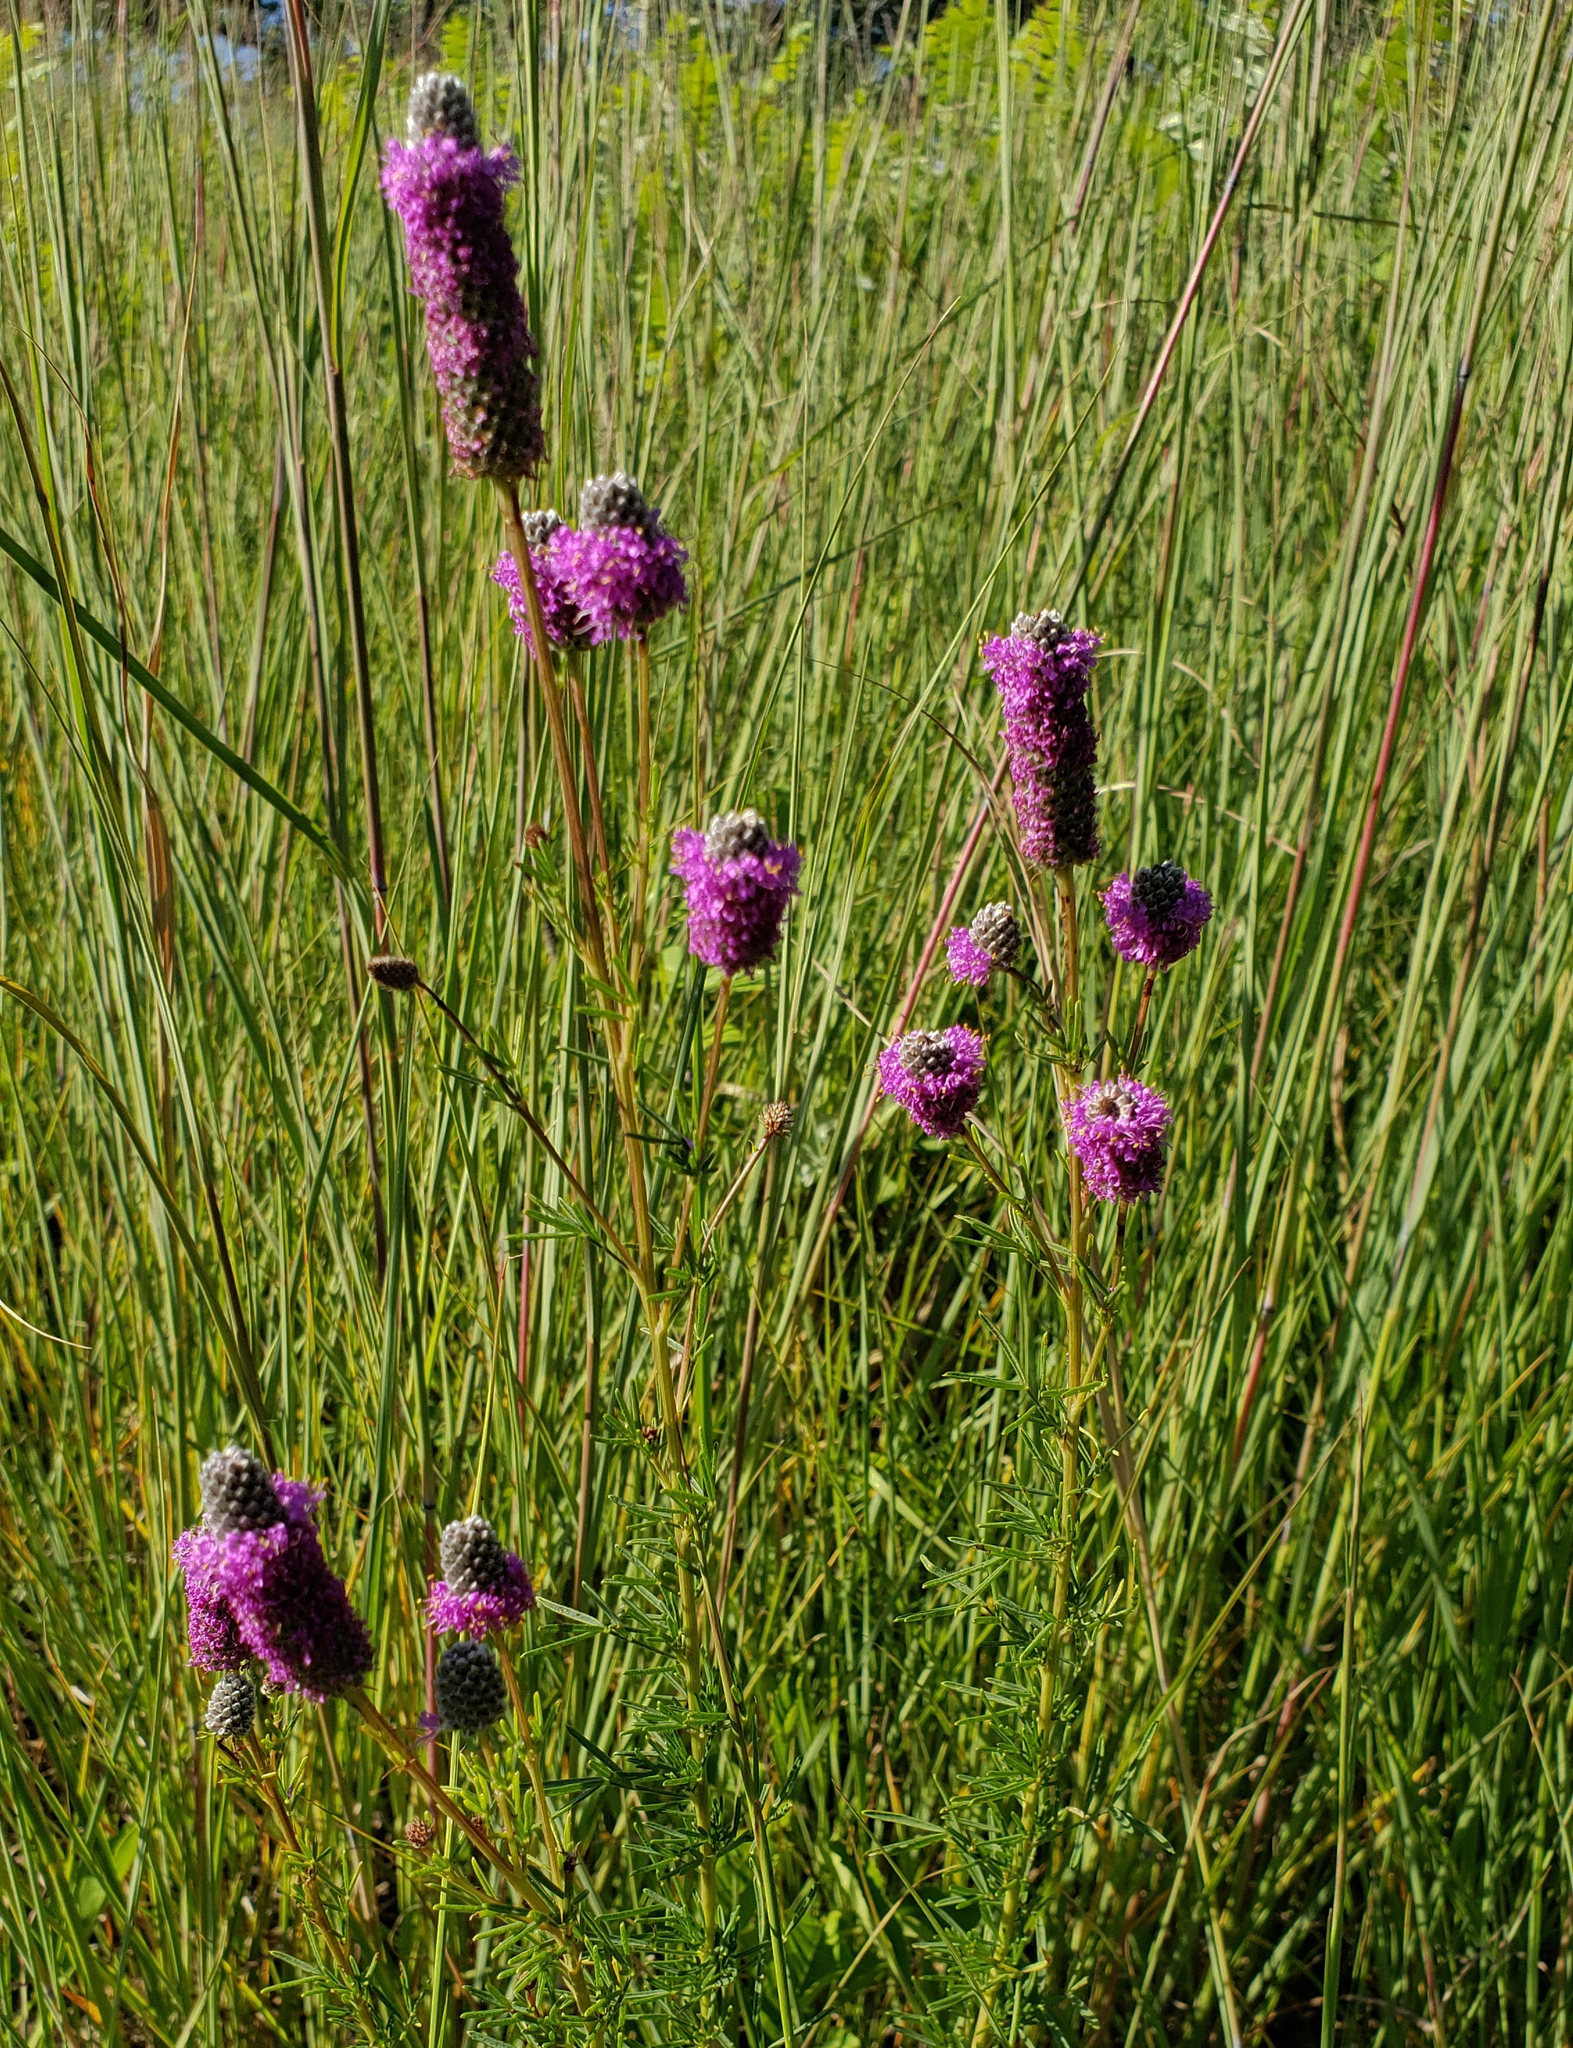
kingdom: Plantae
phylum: Tracheophyta
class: Magnoliopsida
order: Fabales
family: Fabaceae
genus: Dalea
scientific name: Dalea purpurea
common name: Purple prairie-clover
